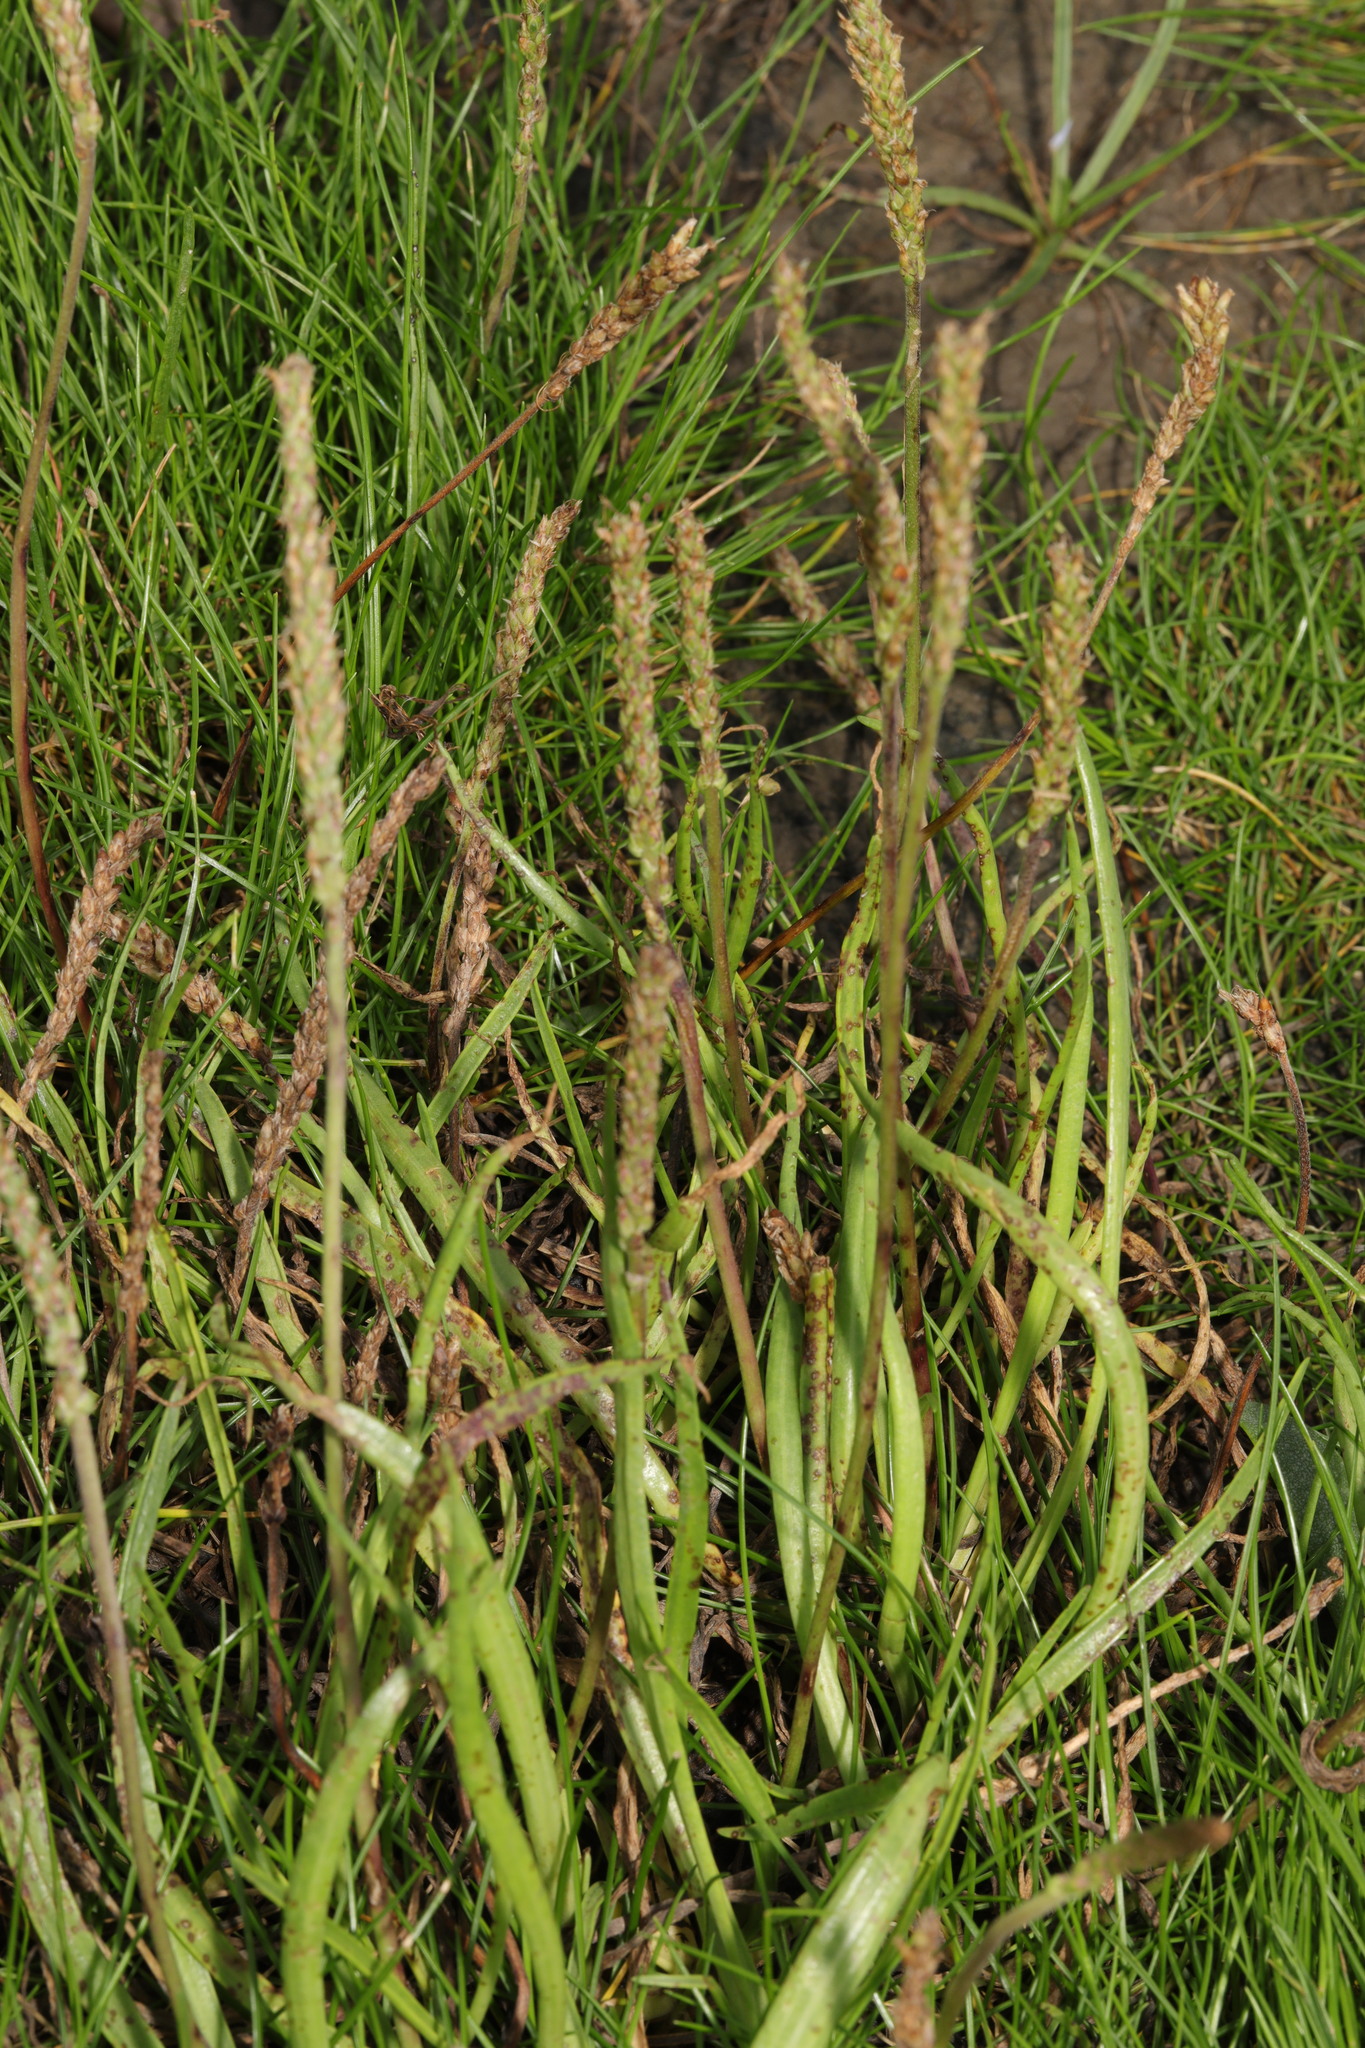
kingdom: Plantae
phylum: Tracheophyta
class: Magnoliopsida
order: Lamiales
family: Plantaginaceae
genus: Plantago
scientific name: Plantago maritima
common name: Sea plantain
